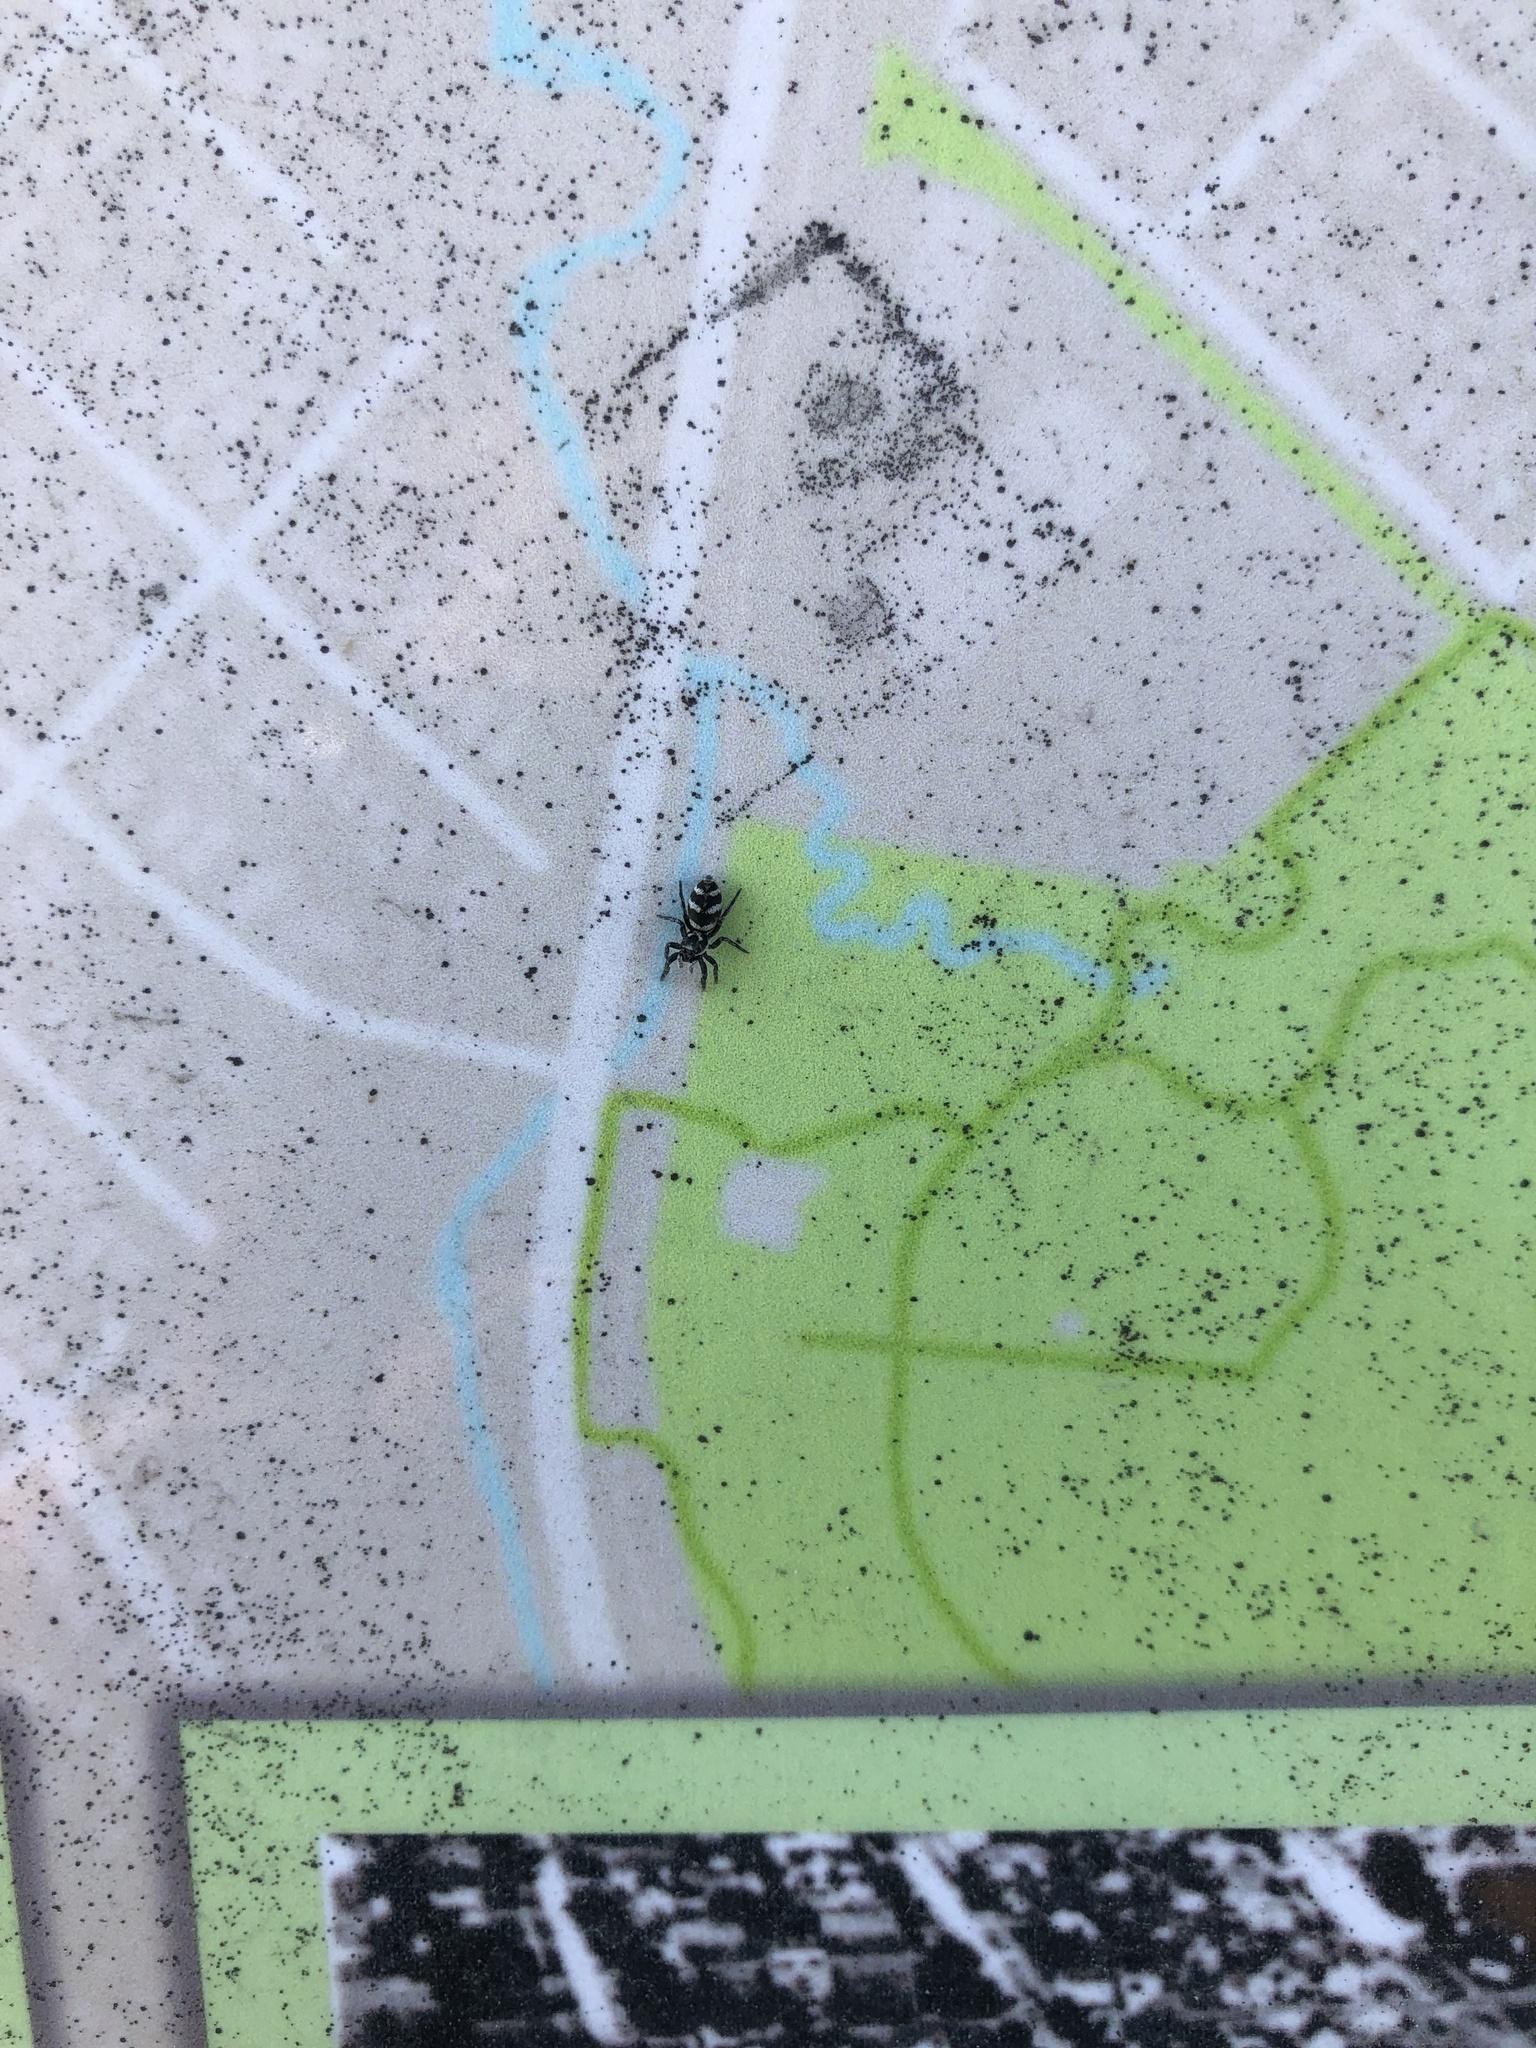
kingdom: Animalia
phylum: Arthropoda
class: Arachnida
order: Araneae
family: Salticidae
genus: Salticus
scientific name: Salticus scenicus
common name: Zebra jumper
